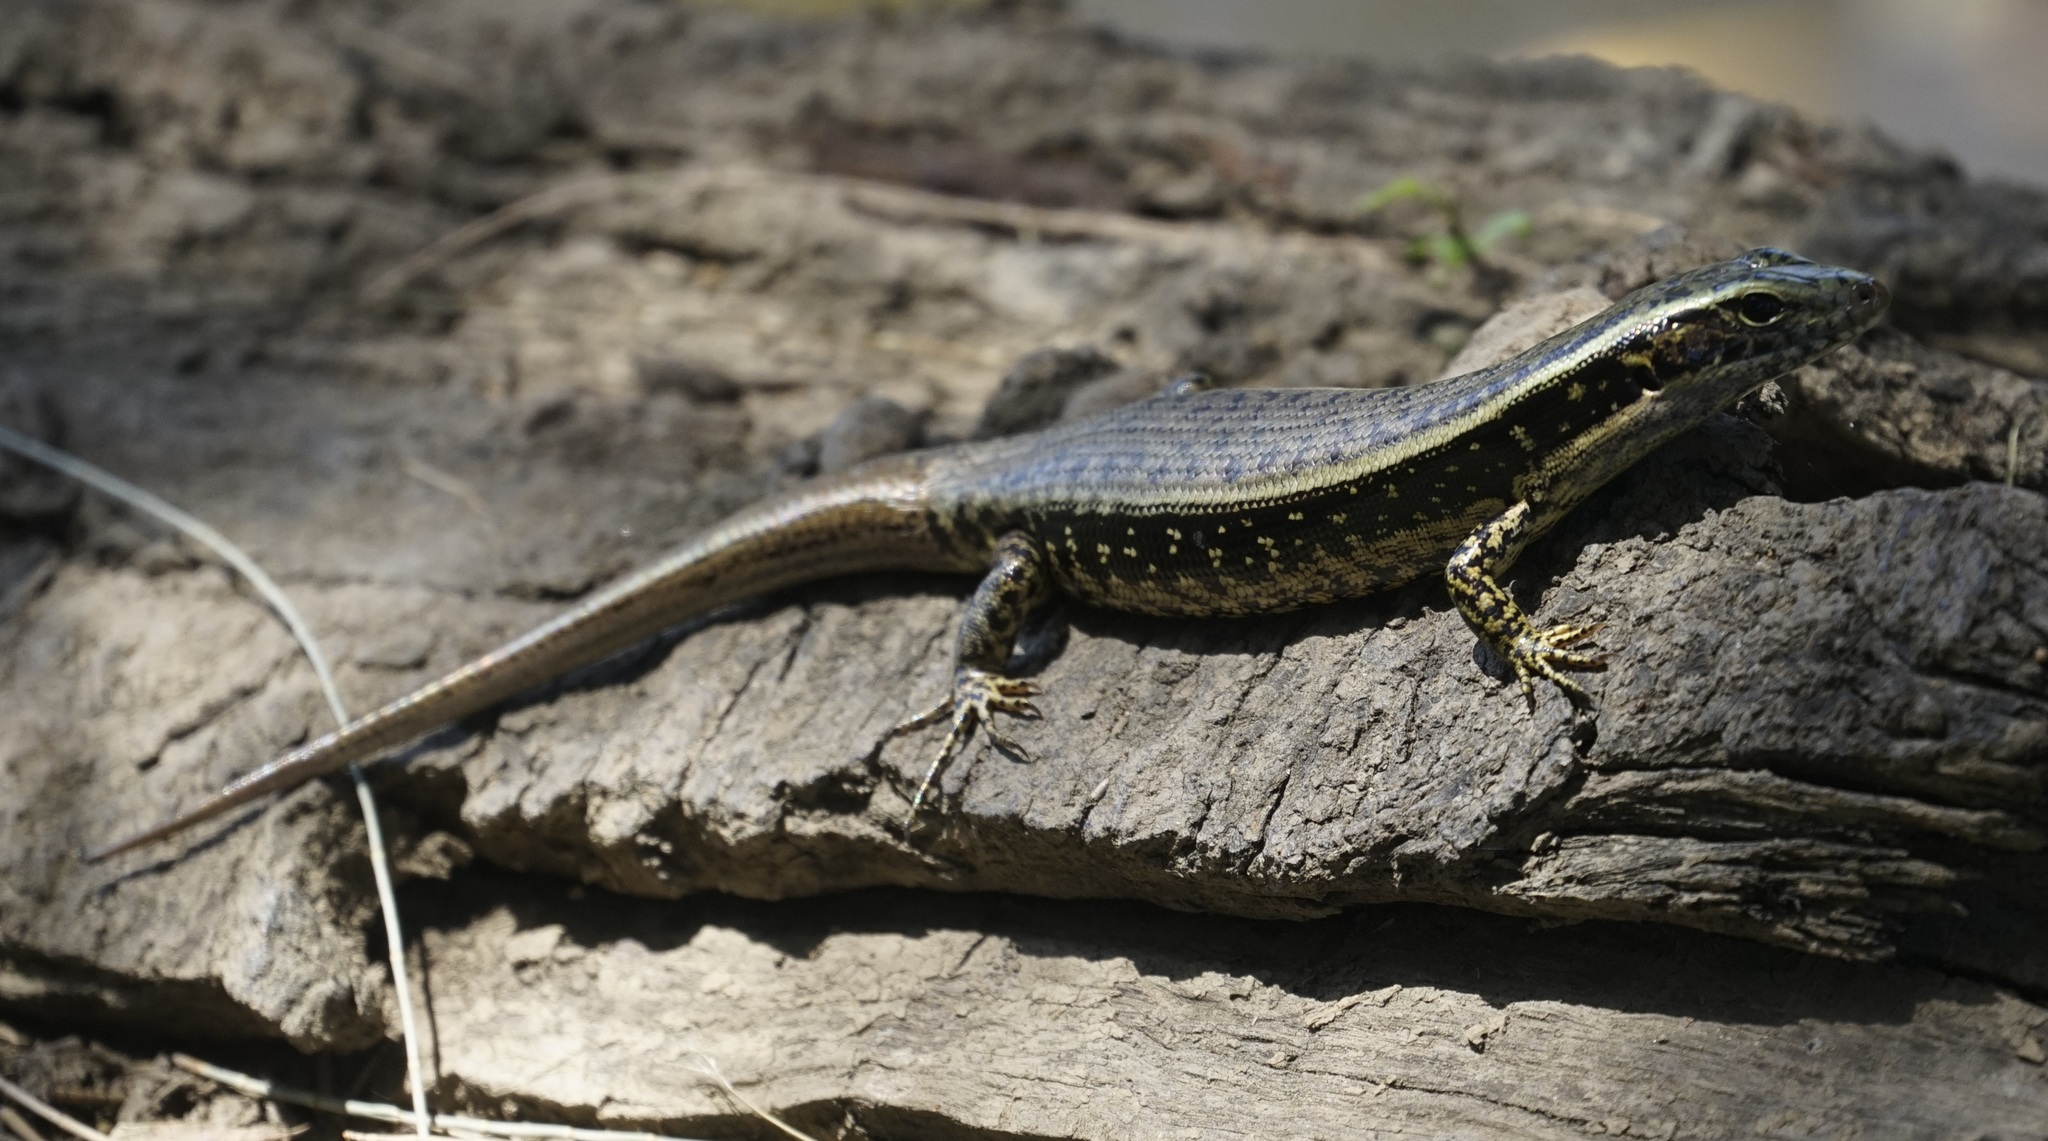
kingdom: Animalia
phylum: Chordata
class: Squamata
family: Scincidae
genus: Eulamprus
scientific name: Eulamprus quoyii
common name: Eastern water skink
